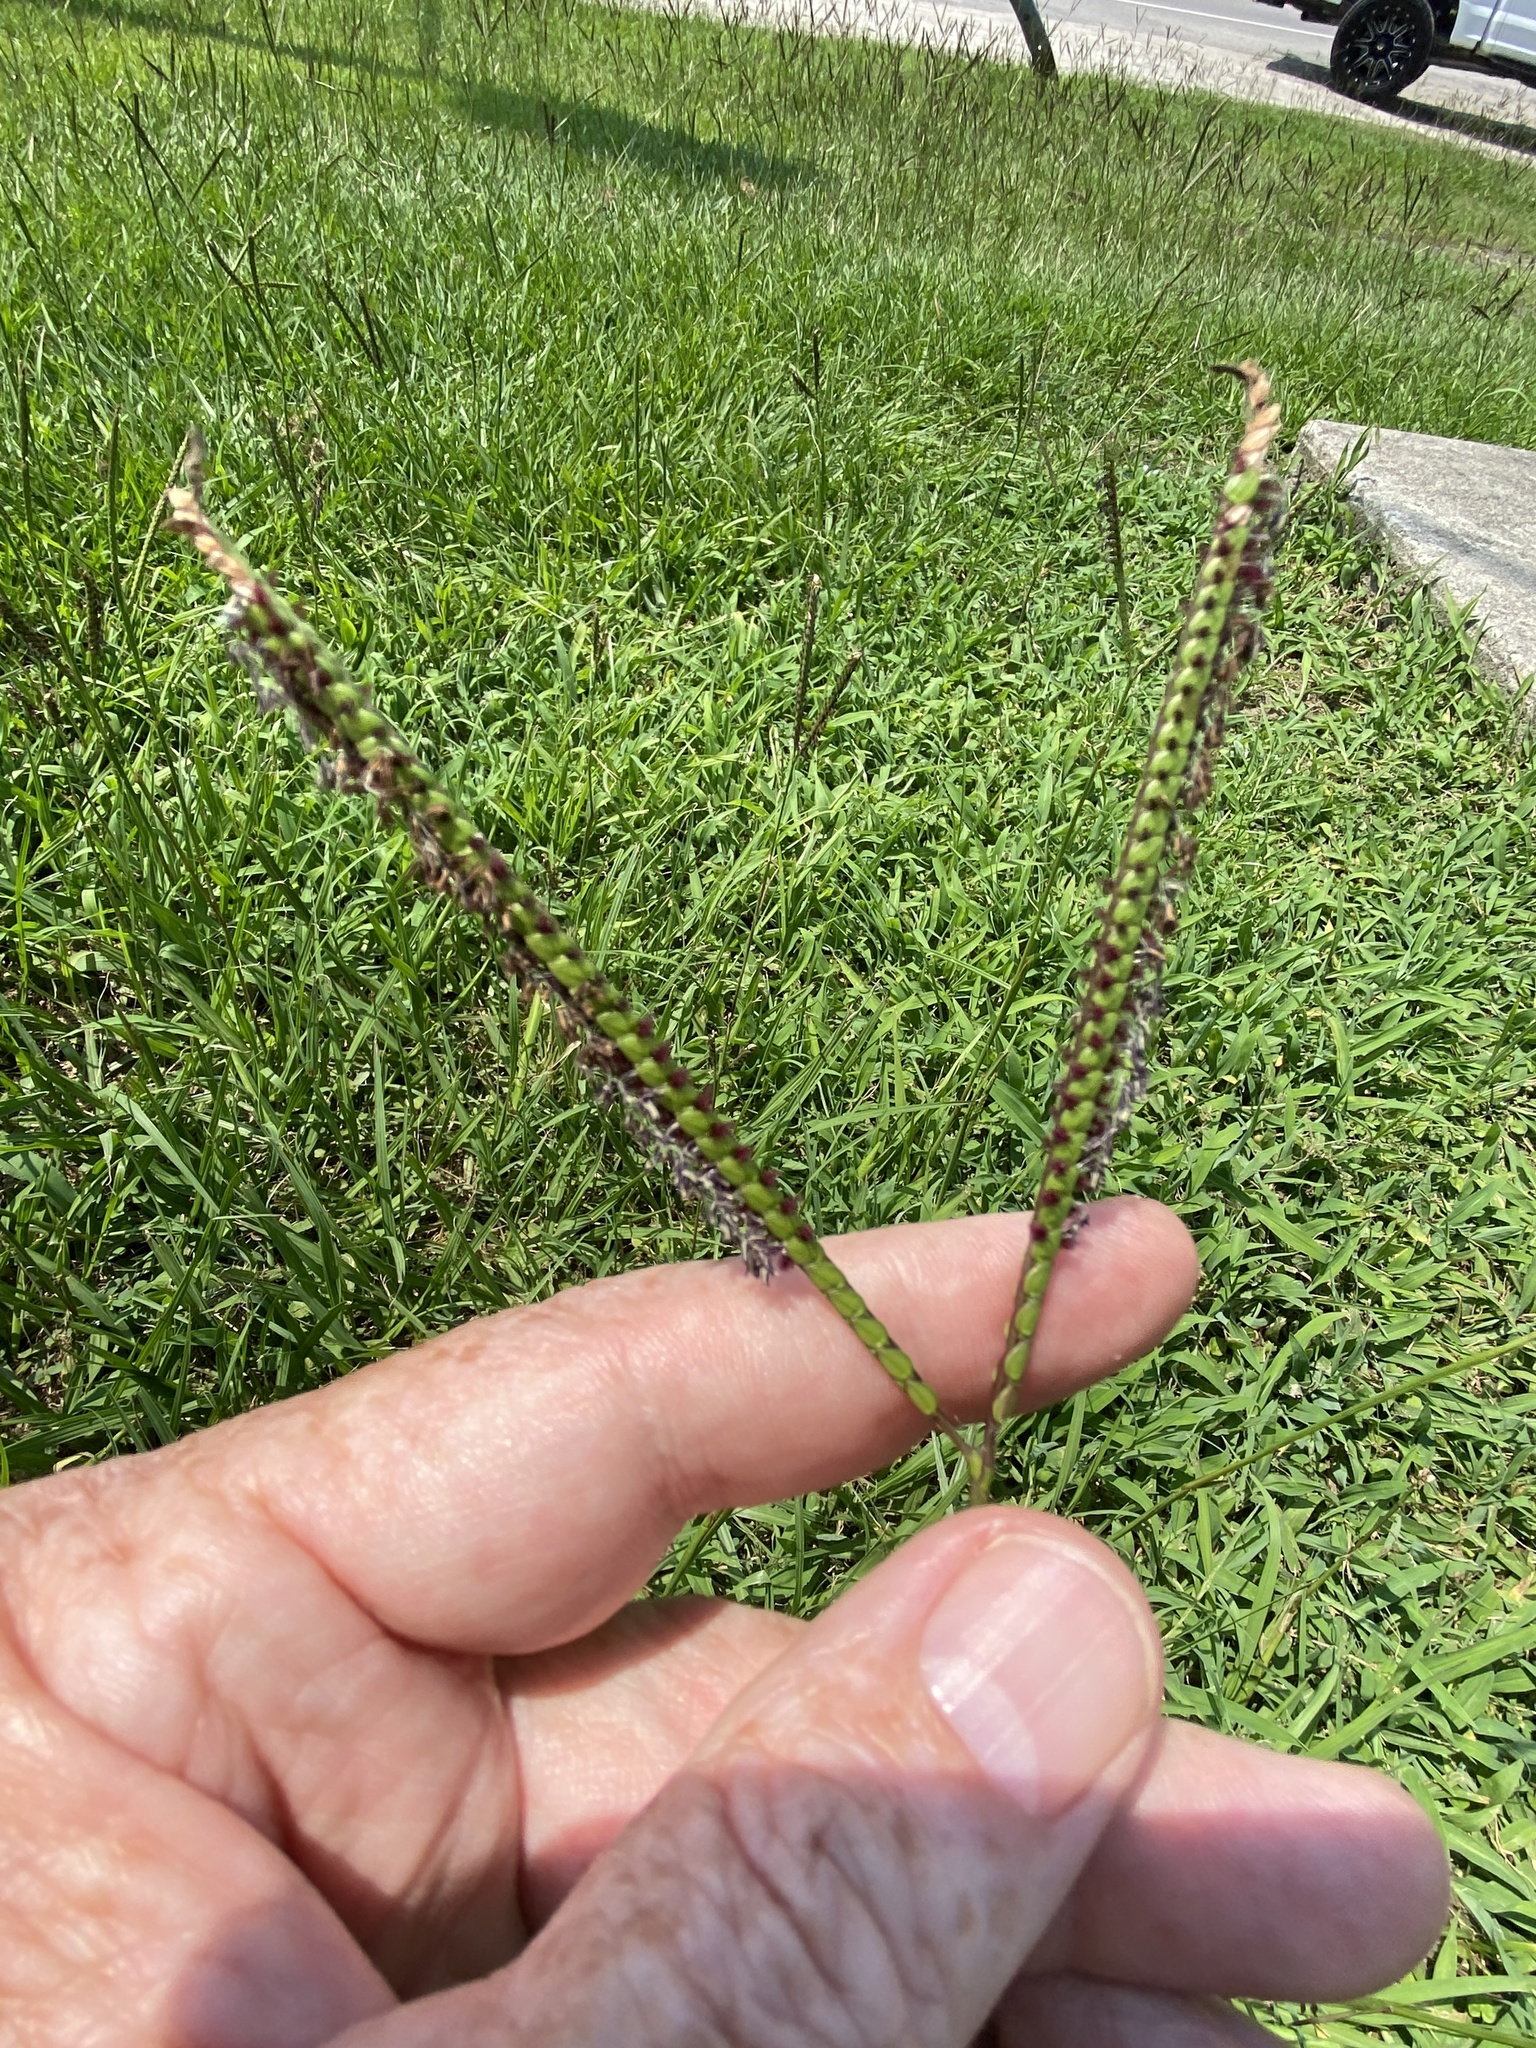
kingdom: Plantae
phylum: Tracheophyta
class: Liliopsida
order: Poales
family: Poaceae
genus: Paspalum
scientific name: Paspalum notatum
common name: Bahiagrass
